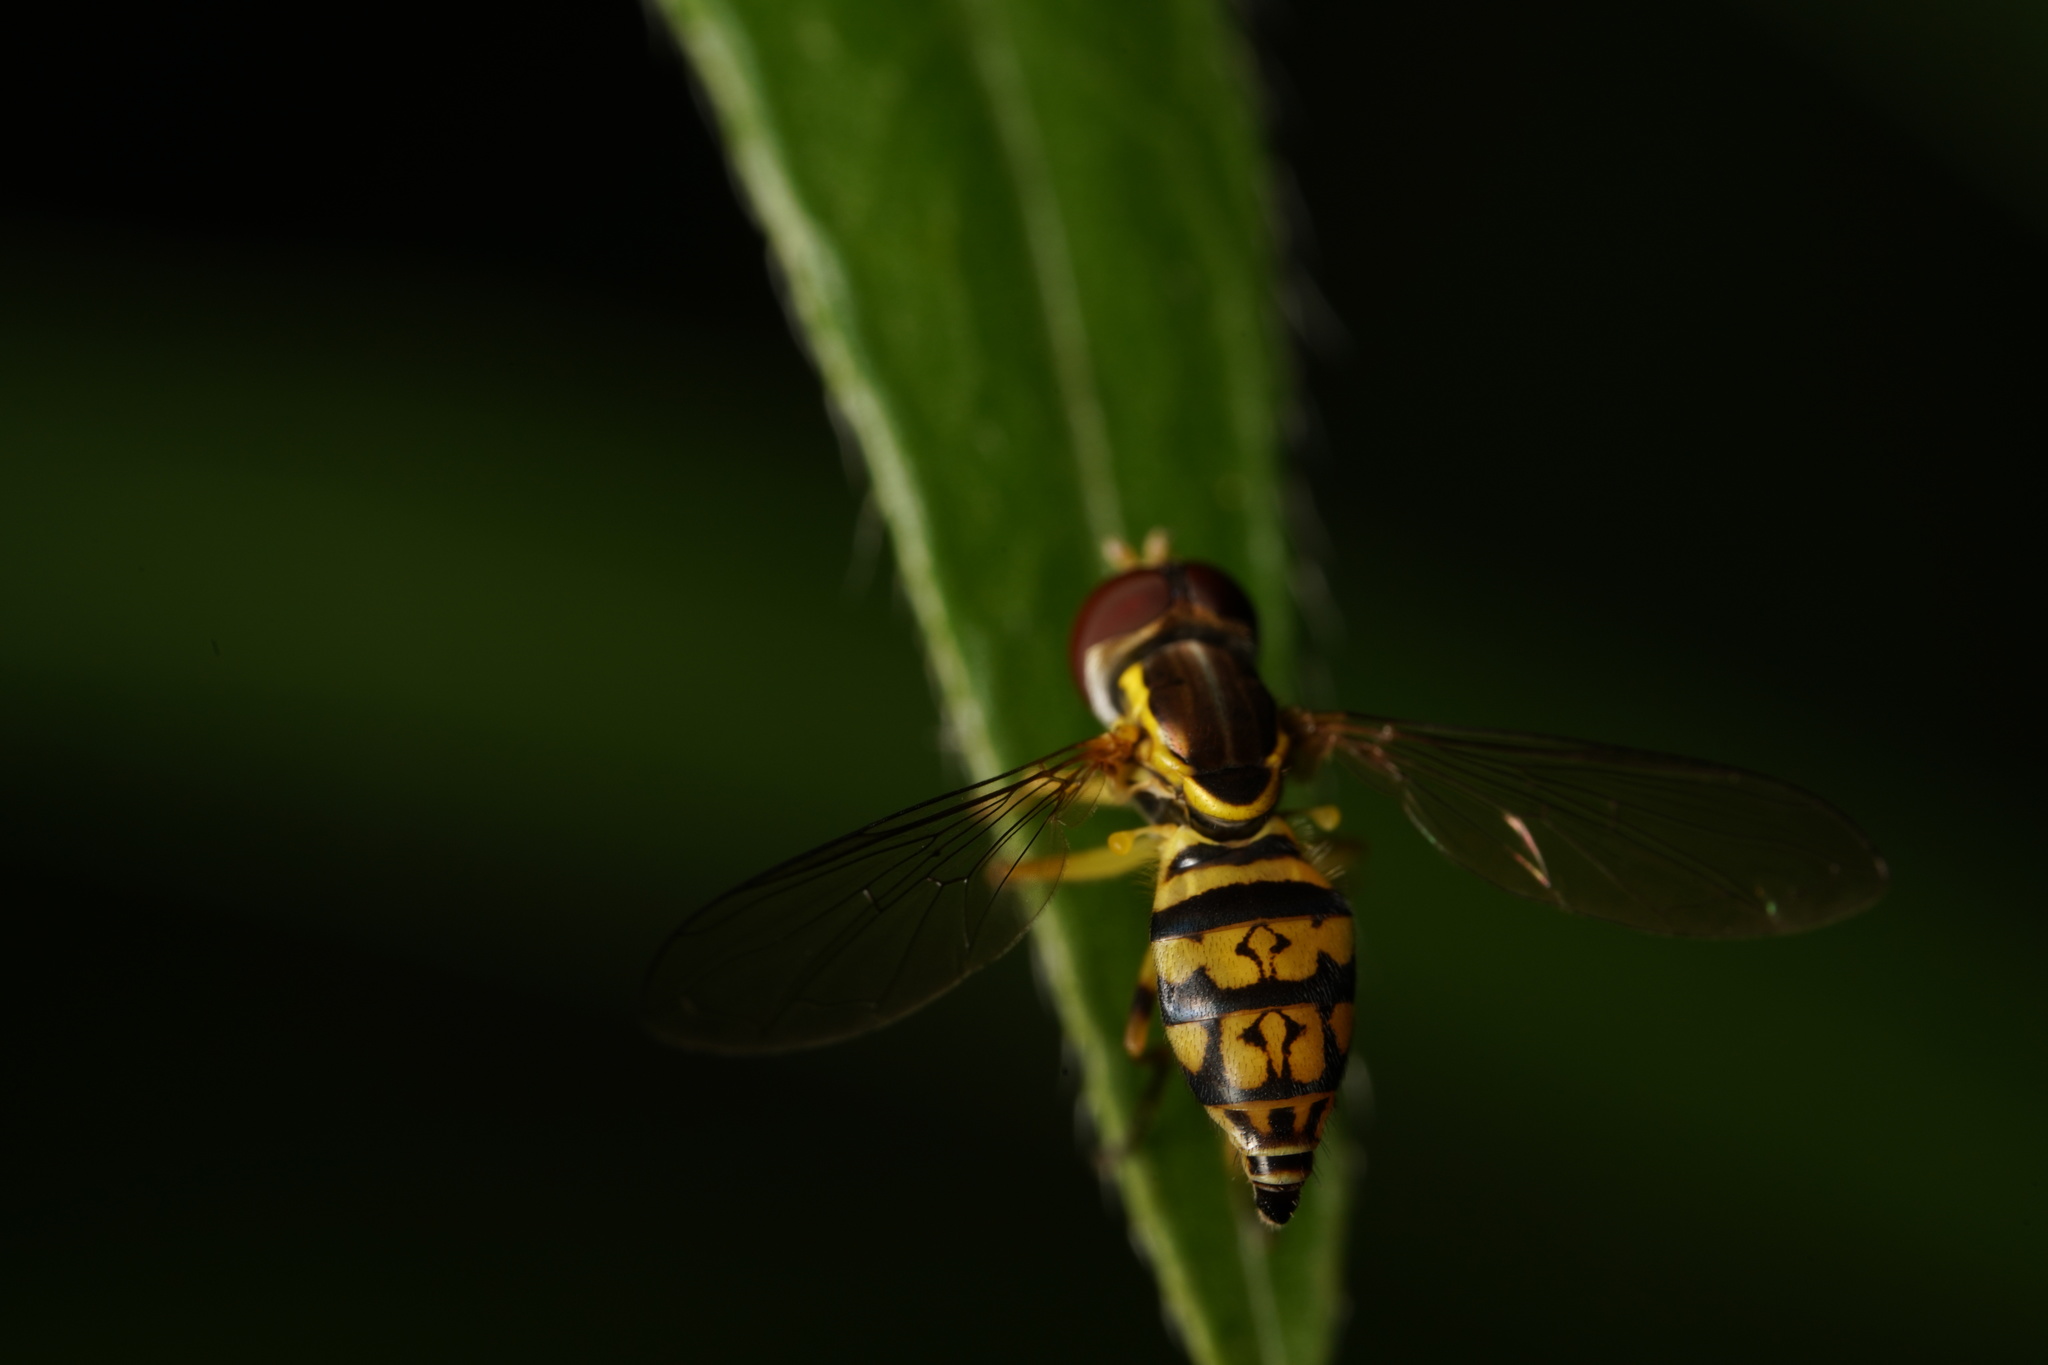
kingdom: Animalia
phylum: Arthropoda
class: Insecta
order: Diptera
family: Syrphidae
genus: Toxomerus
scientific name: Toxomerus geminatus
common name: Eastern calligrapher
